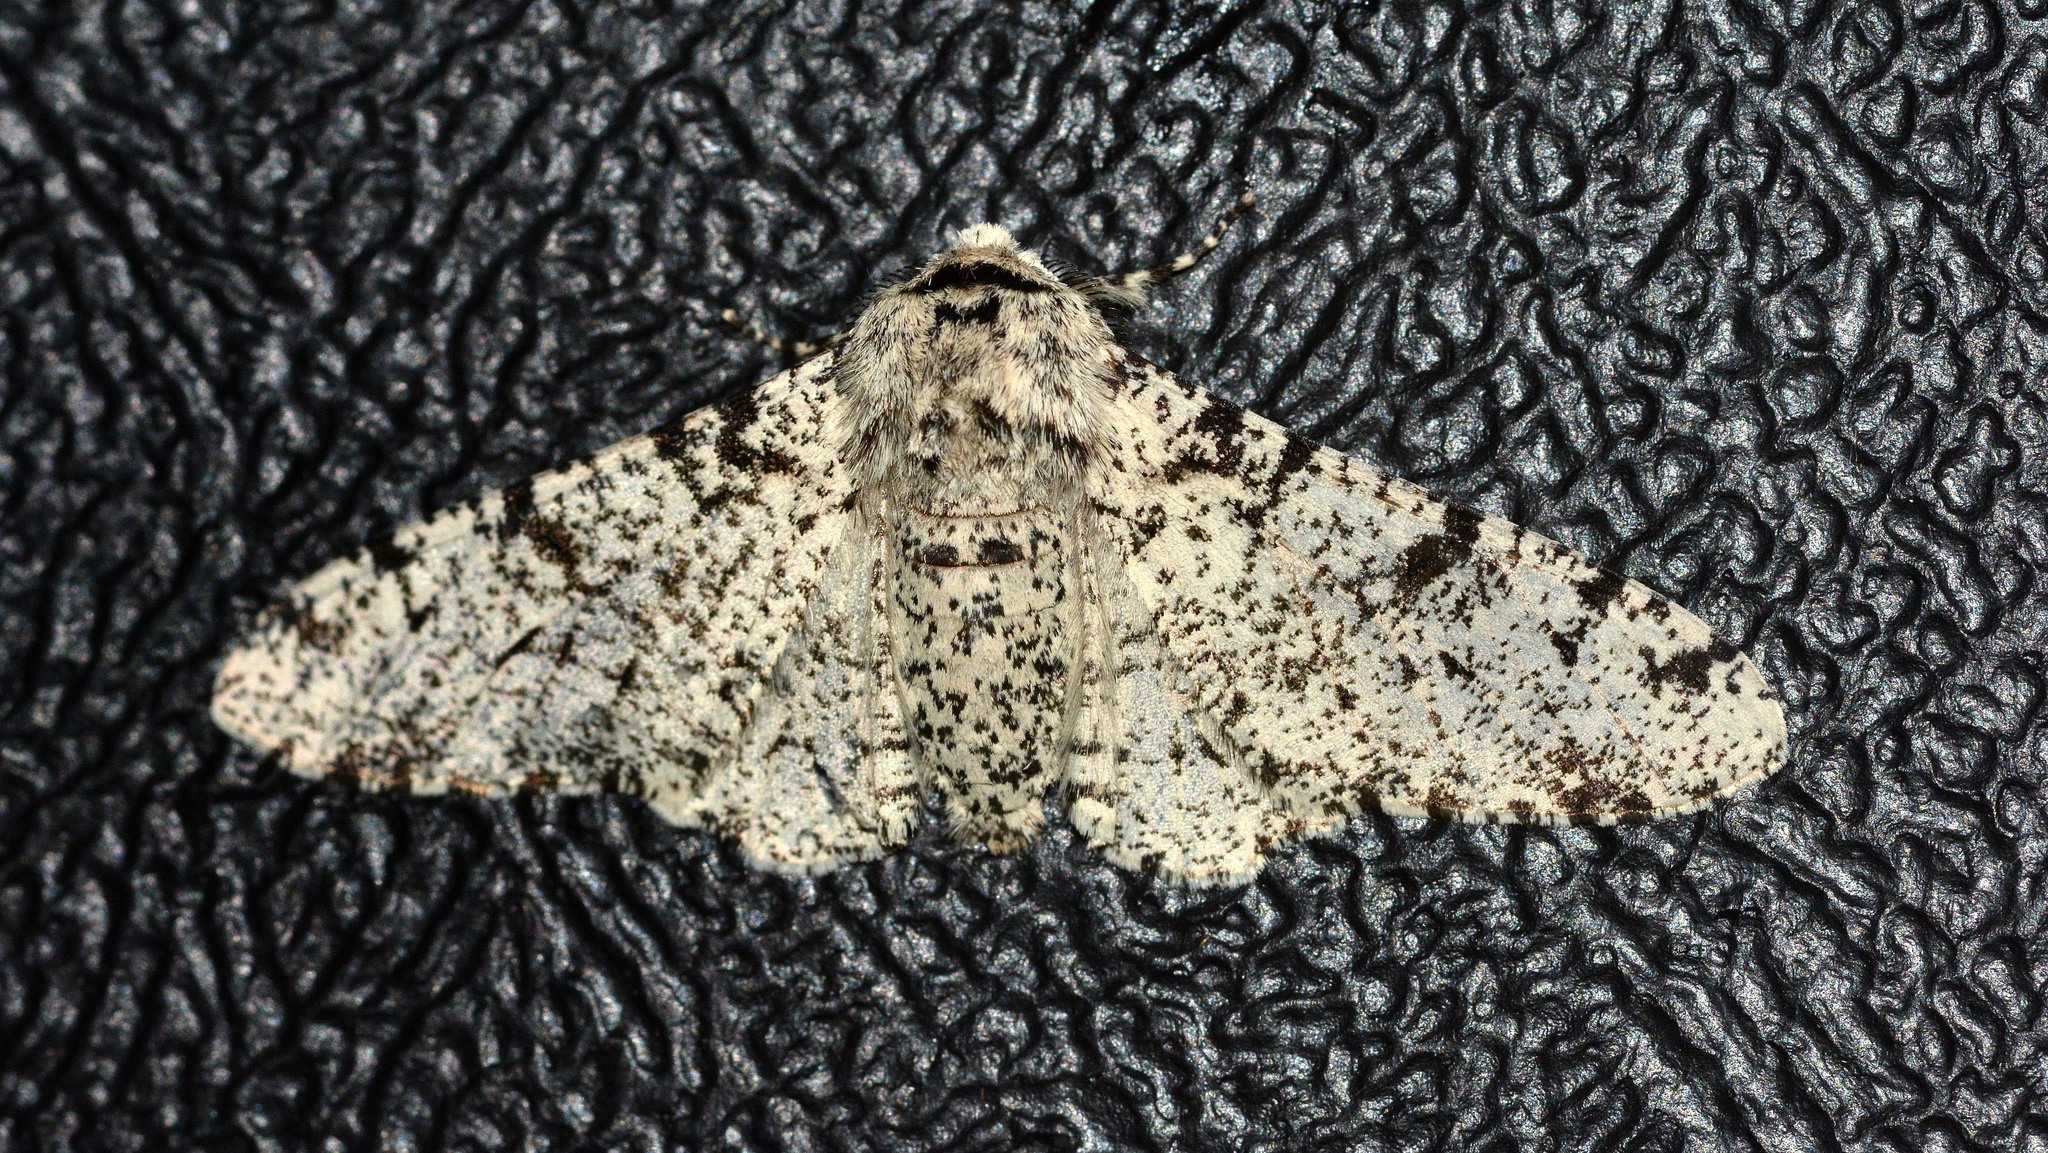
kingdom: Animalia
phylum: Arthropoda
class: Insecta
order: Lepidoptera
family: Geometridae
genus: Biston
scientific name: Biston betularia
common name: Peppered moth
